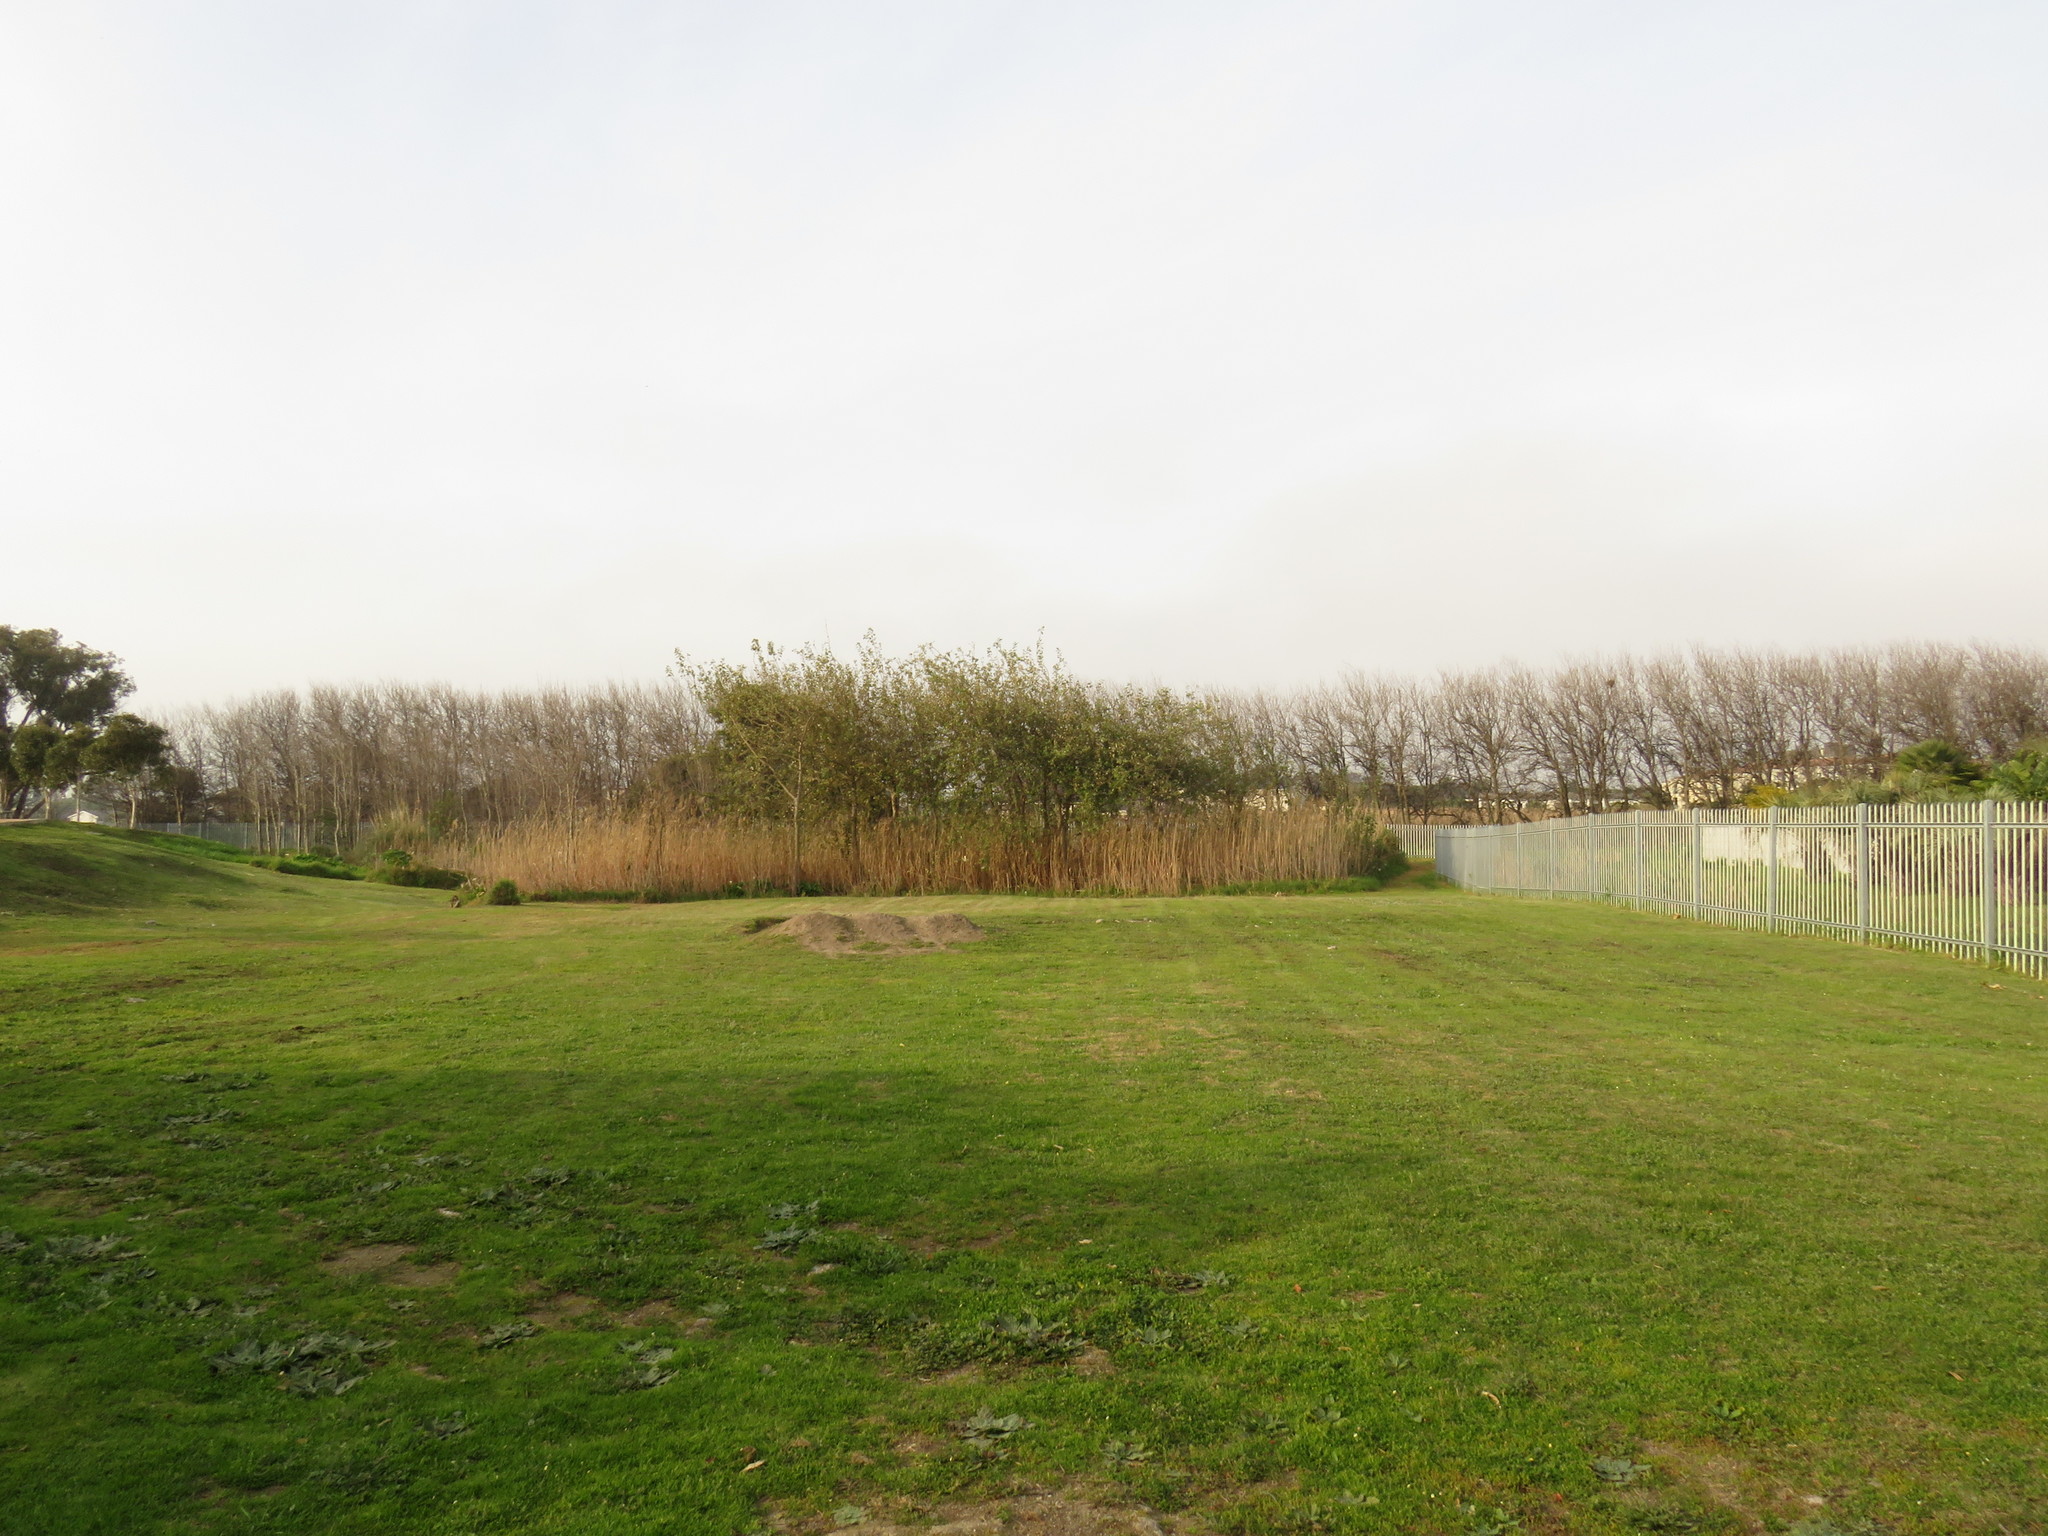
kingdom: Plantae
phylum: Tracheophyta
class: Magnoliopsida
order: Malpighiales
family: Salicaceae
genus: Populus
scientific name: Populus canescens
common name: Gray poplar
